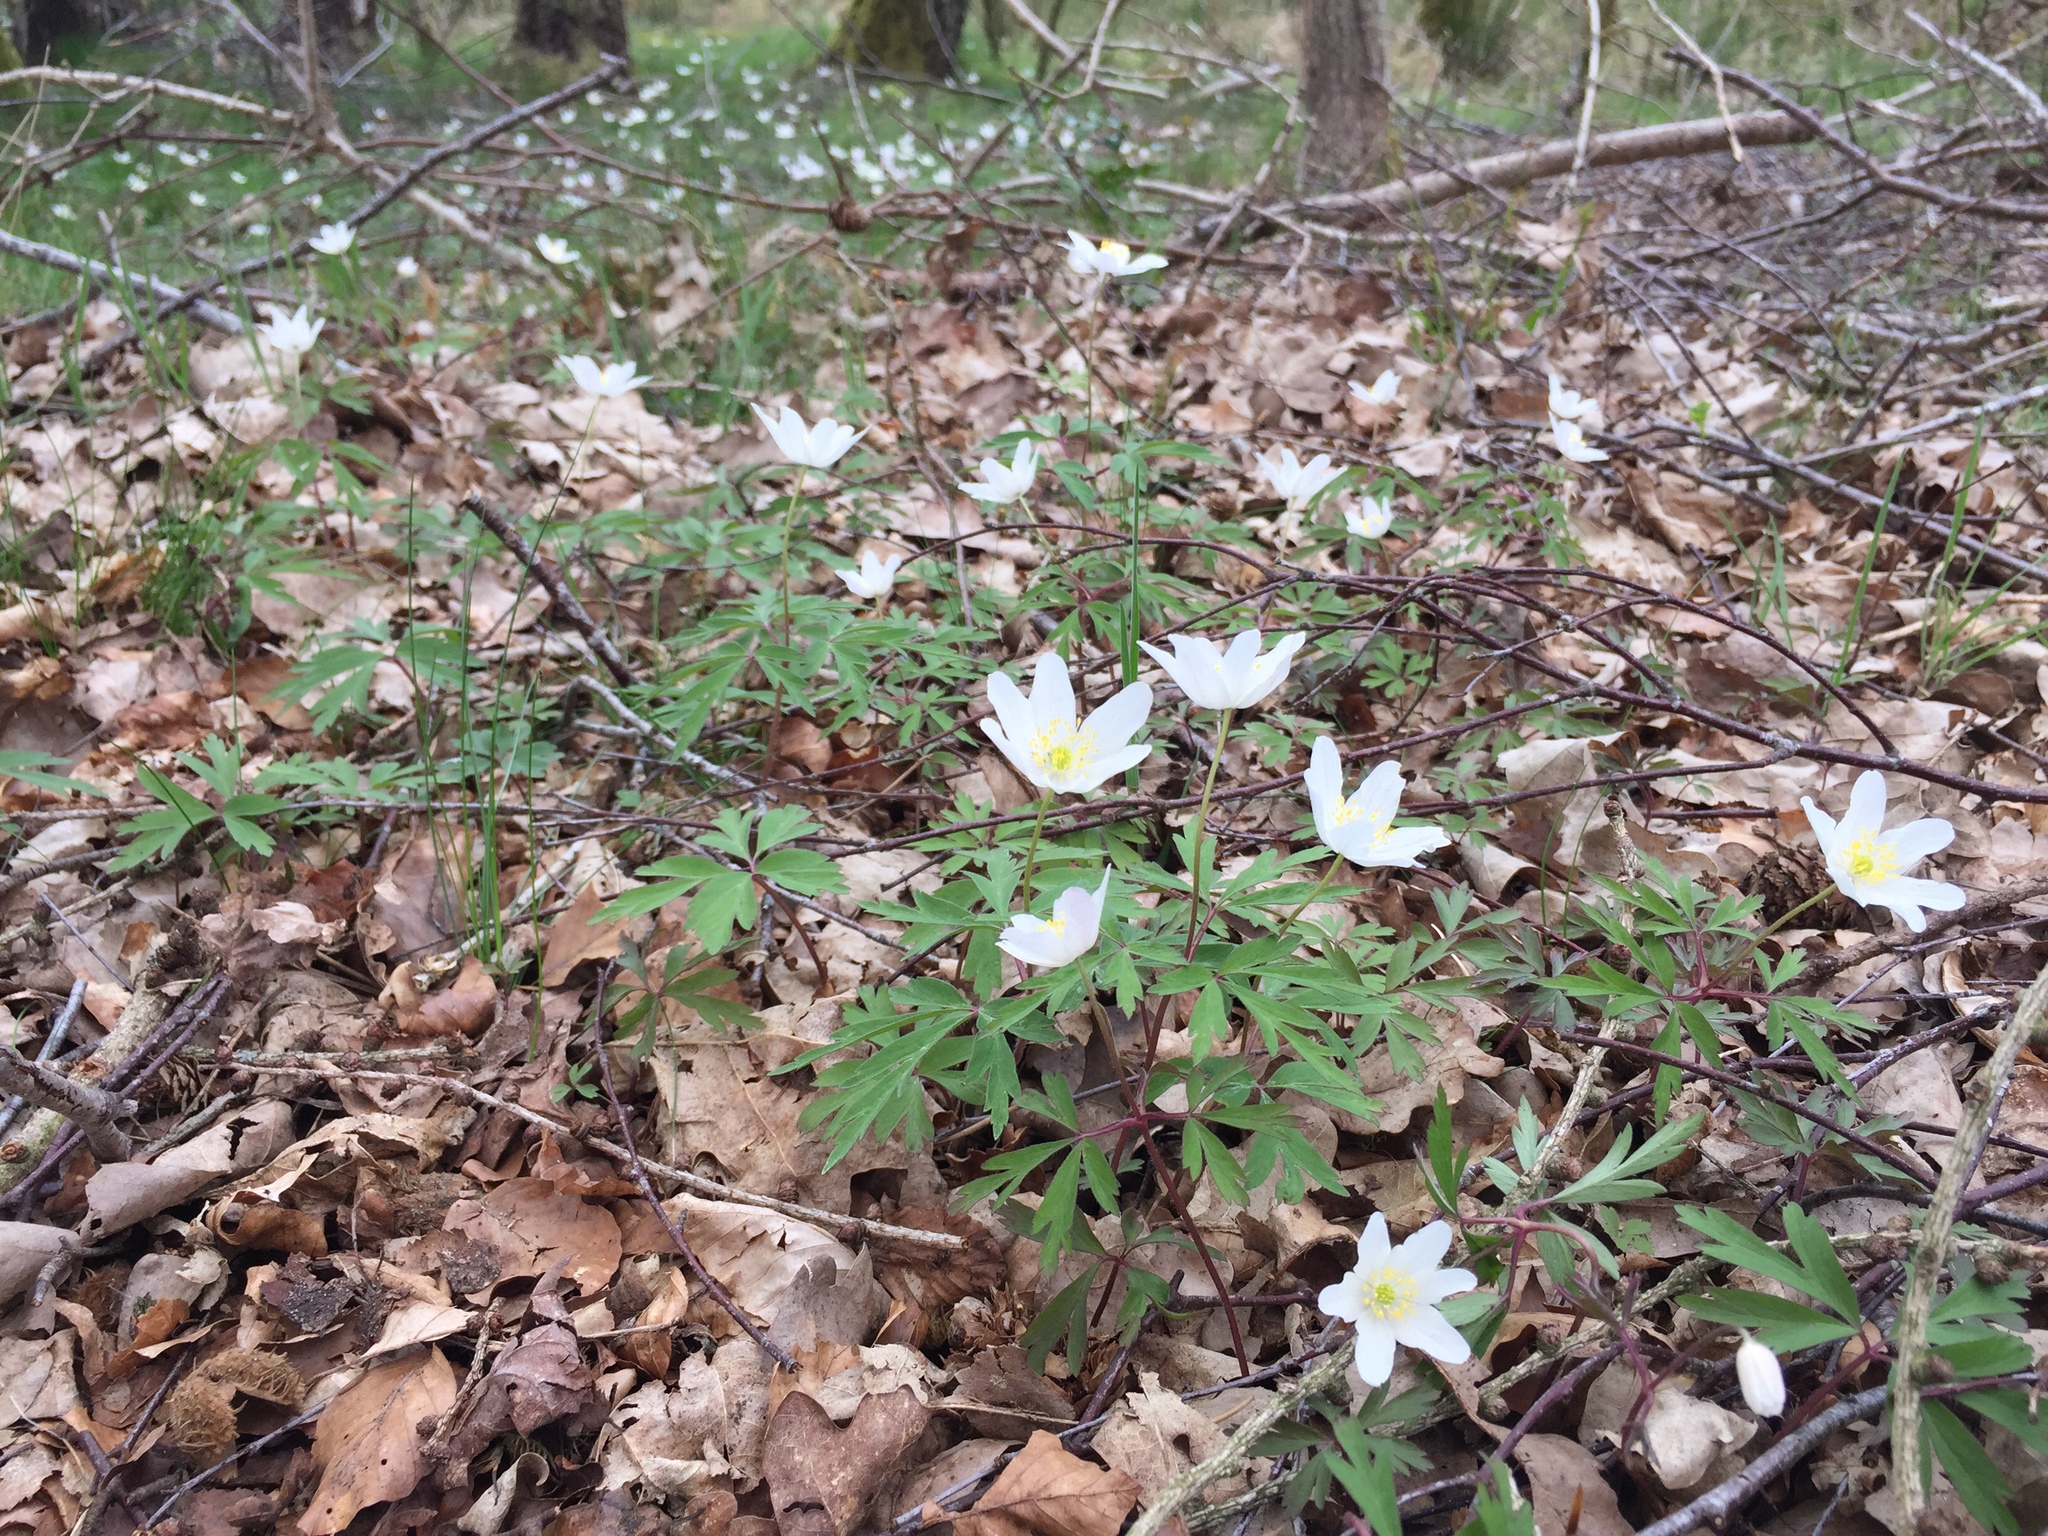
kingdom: Plantae
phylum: Tracheophyta
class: Magnoliopsida
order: Ranunculales
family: Ranunculaceae
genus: Anemone
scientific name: Anemone nemorosa
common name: Wood anemone
